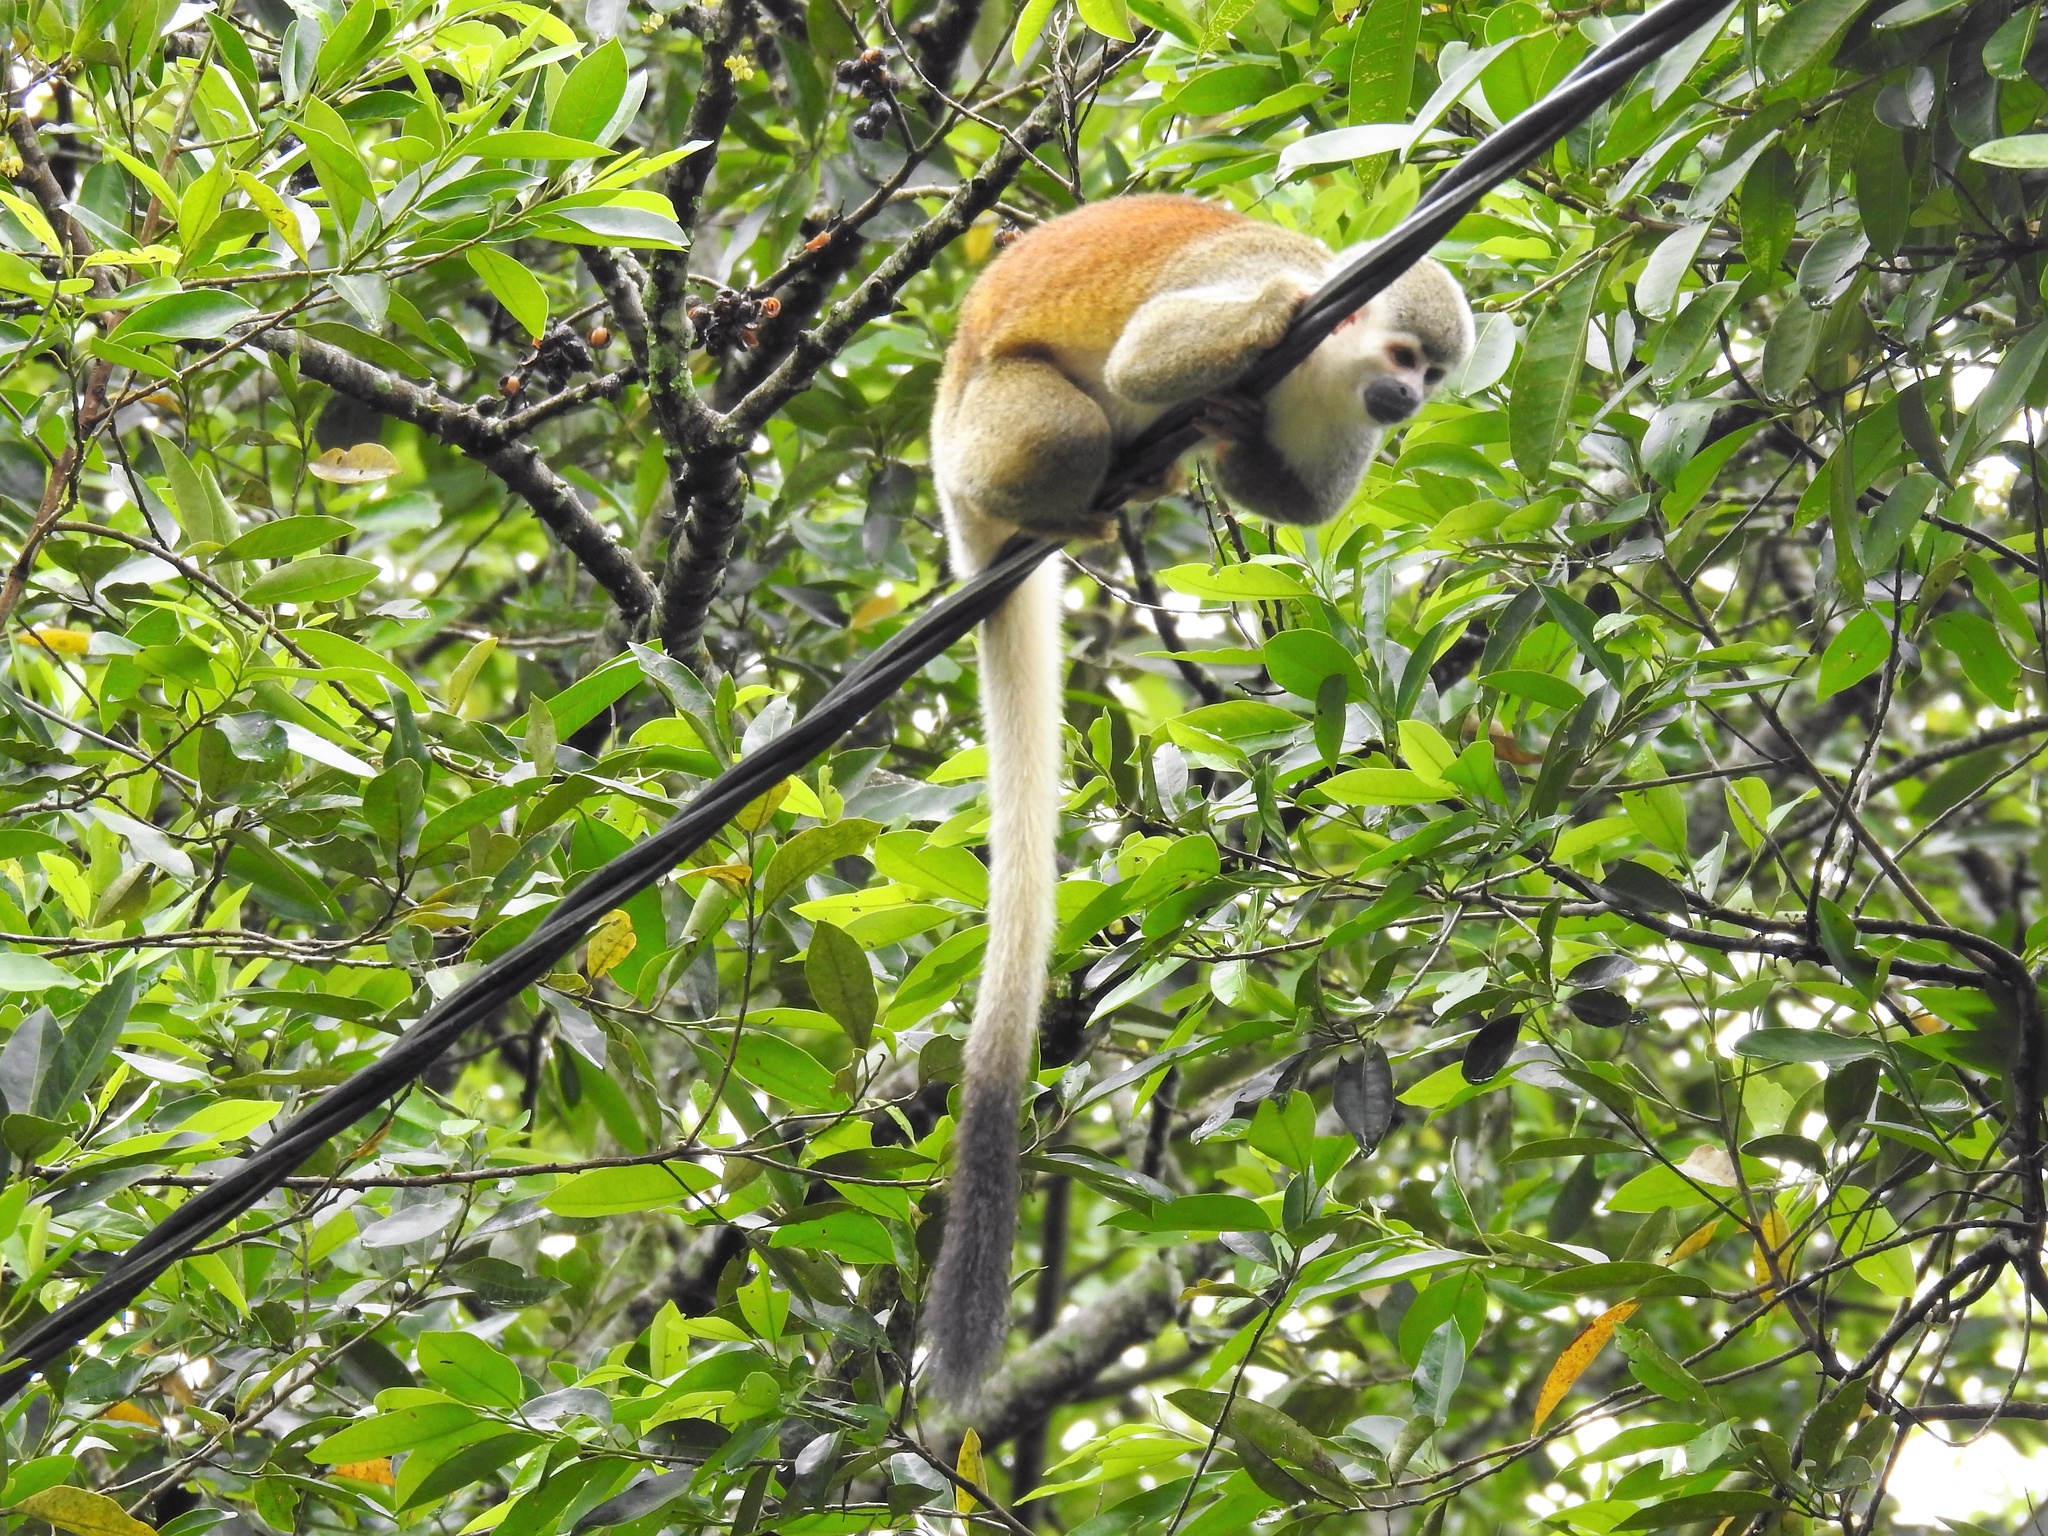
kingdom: Animalia
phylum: Chordata
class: Mammalia
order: Primates
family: Cebidae
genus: Saimiri
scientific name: Saimiri cassiquiarensis
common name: Humboldt’s squirrel monkey
